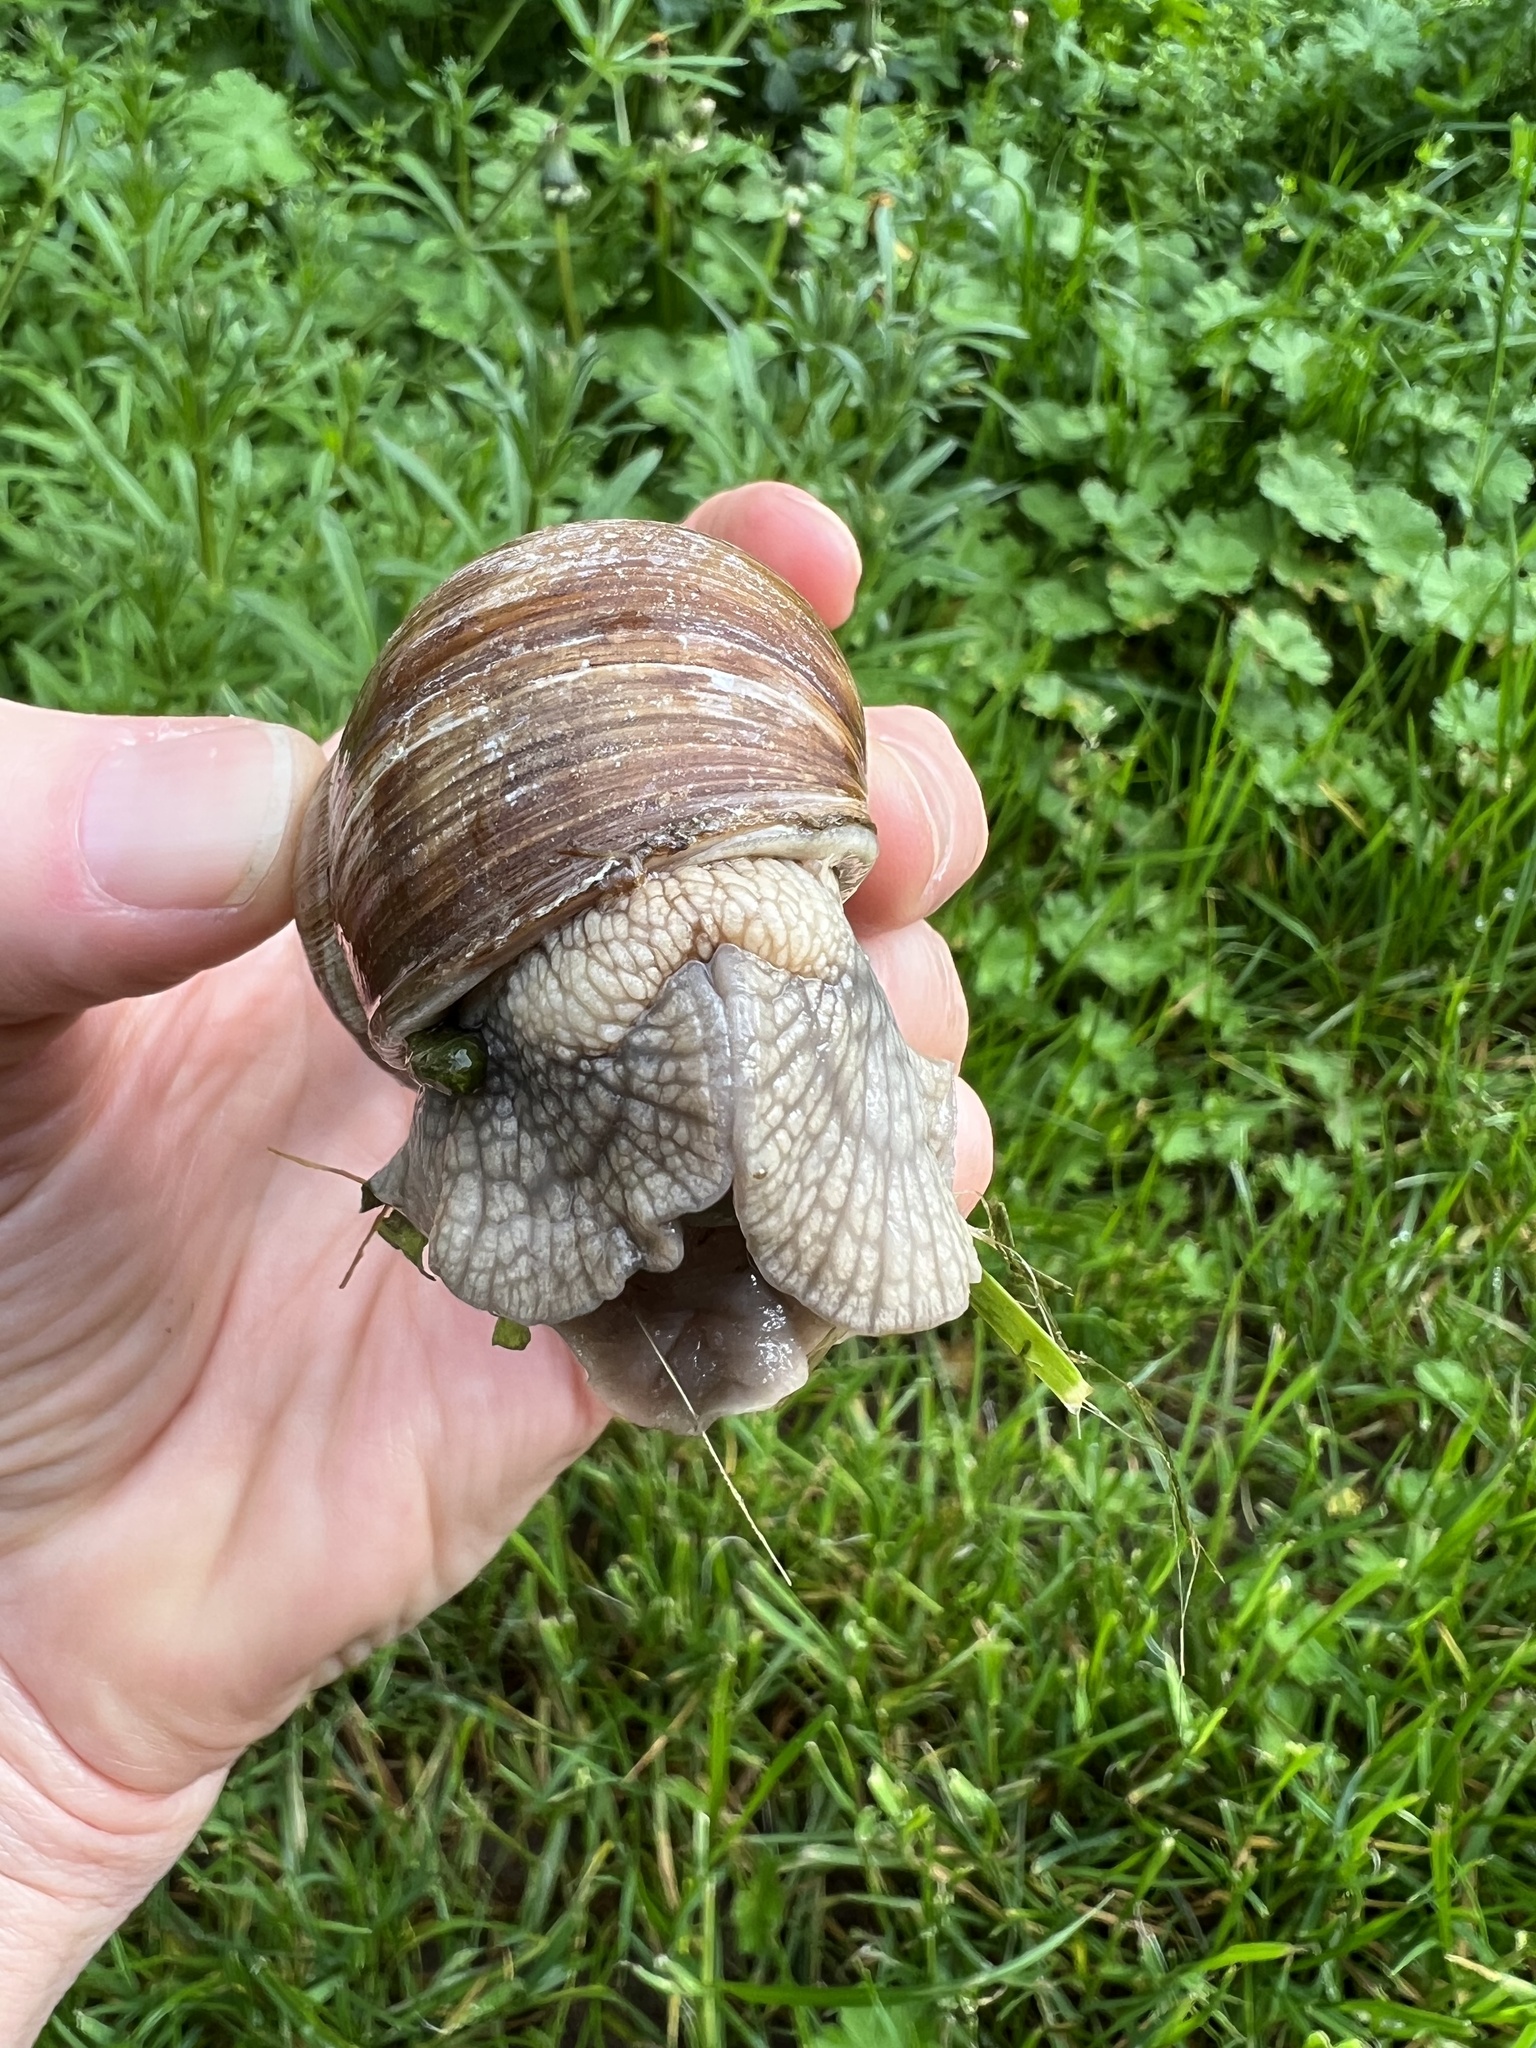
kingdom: Animalia
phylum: Mollusca
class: Gastropoda
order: Stylommatophora
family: Helicidae
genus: Helix
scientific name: Helix pomatia
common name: Roman snail
